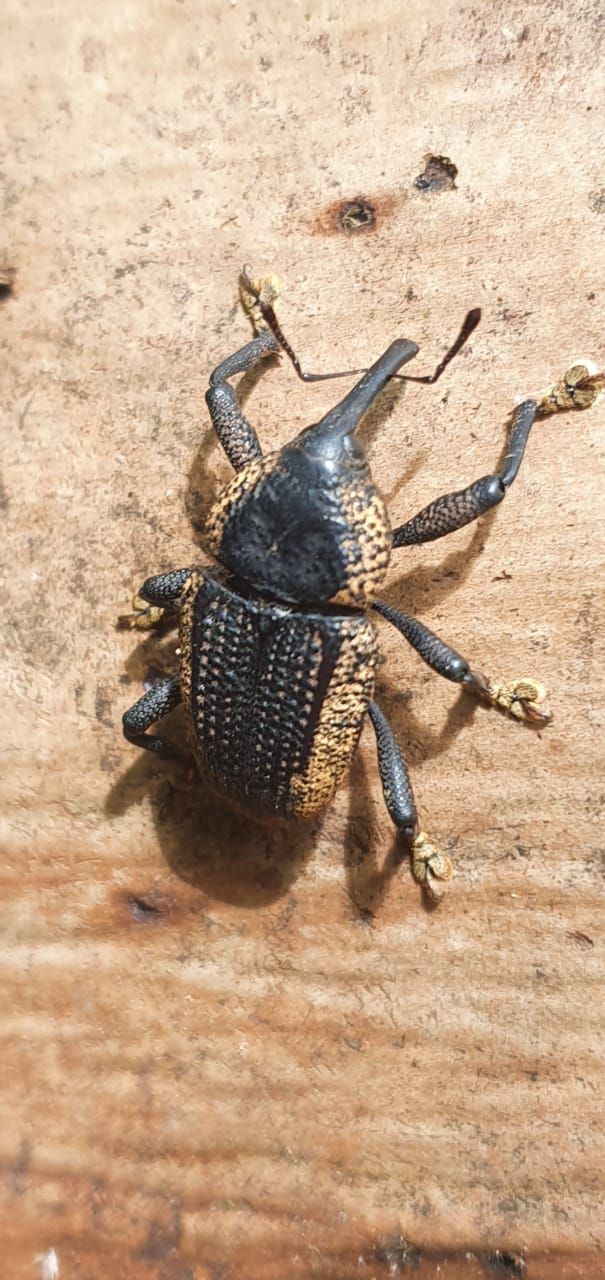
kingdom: Animalia
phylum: Arthropoda
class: Insecta
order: Coleoptera
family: Curculionidae
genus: Homalinotus
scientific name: Homalinotus deplanatus
